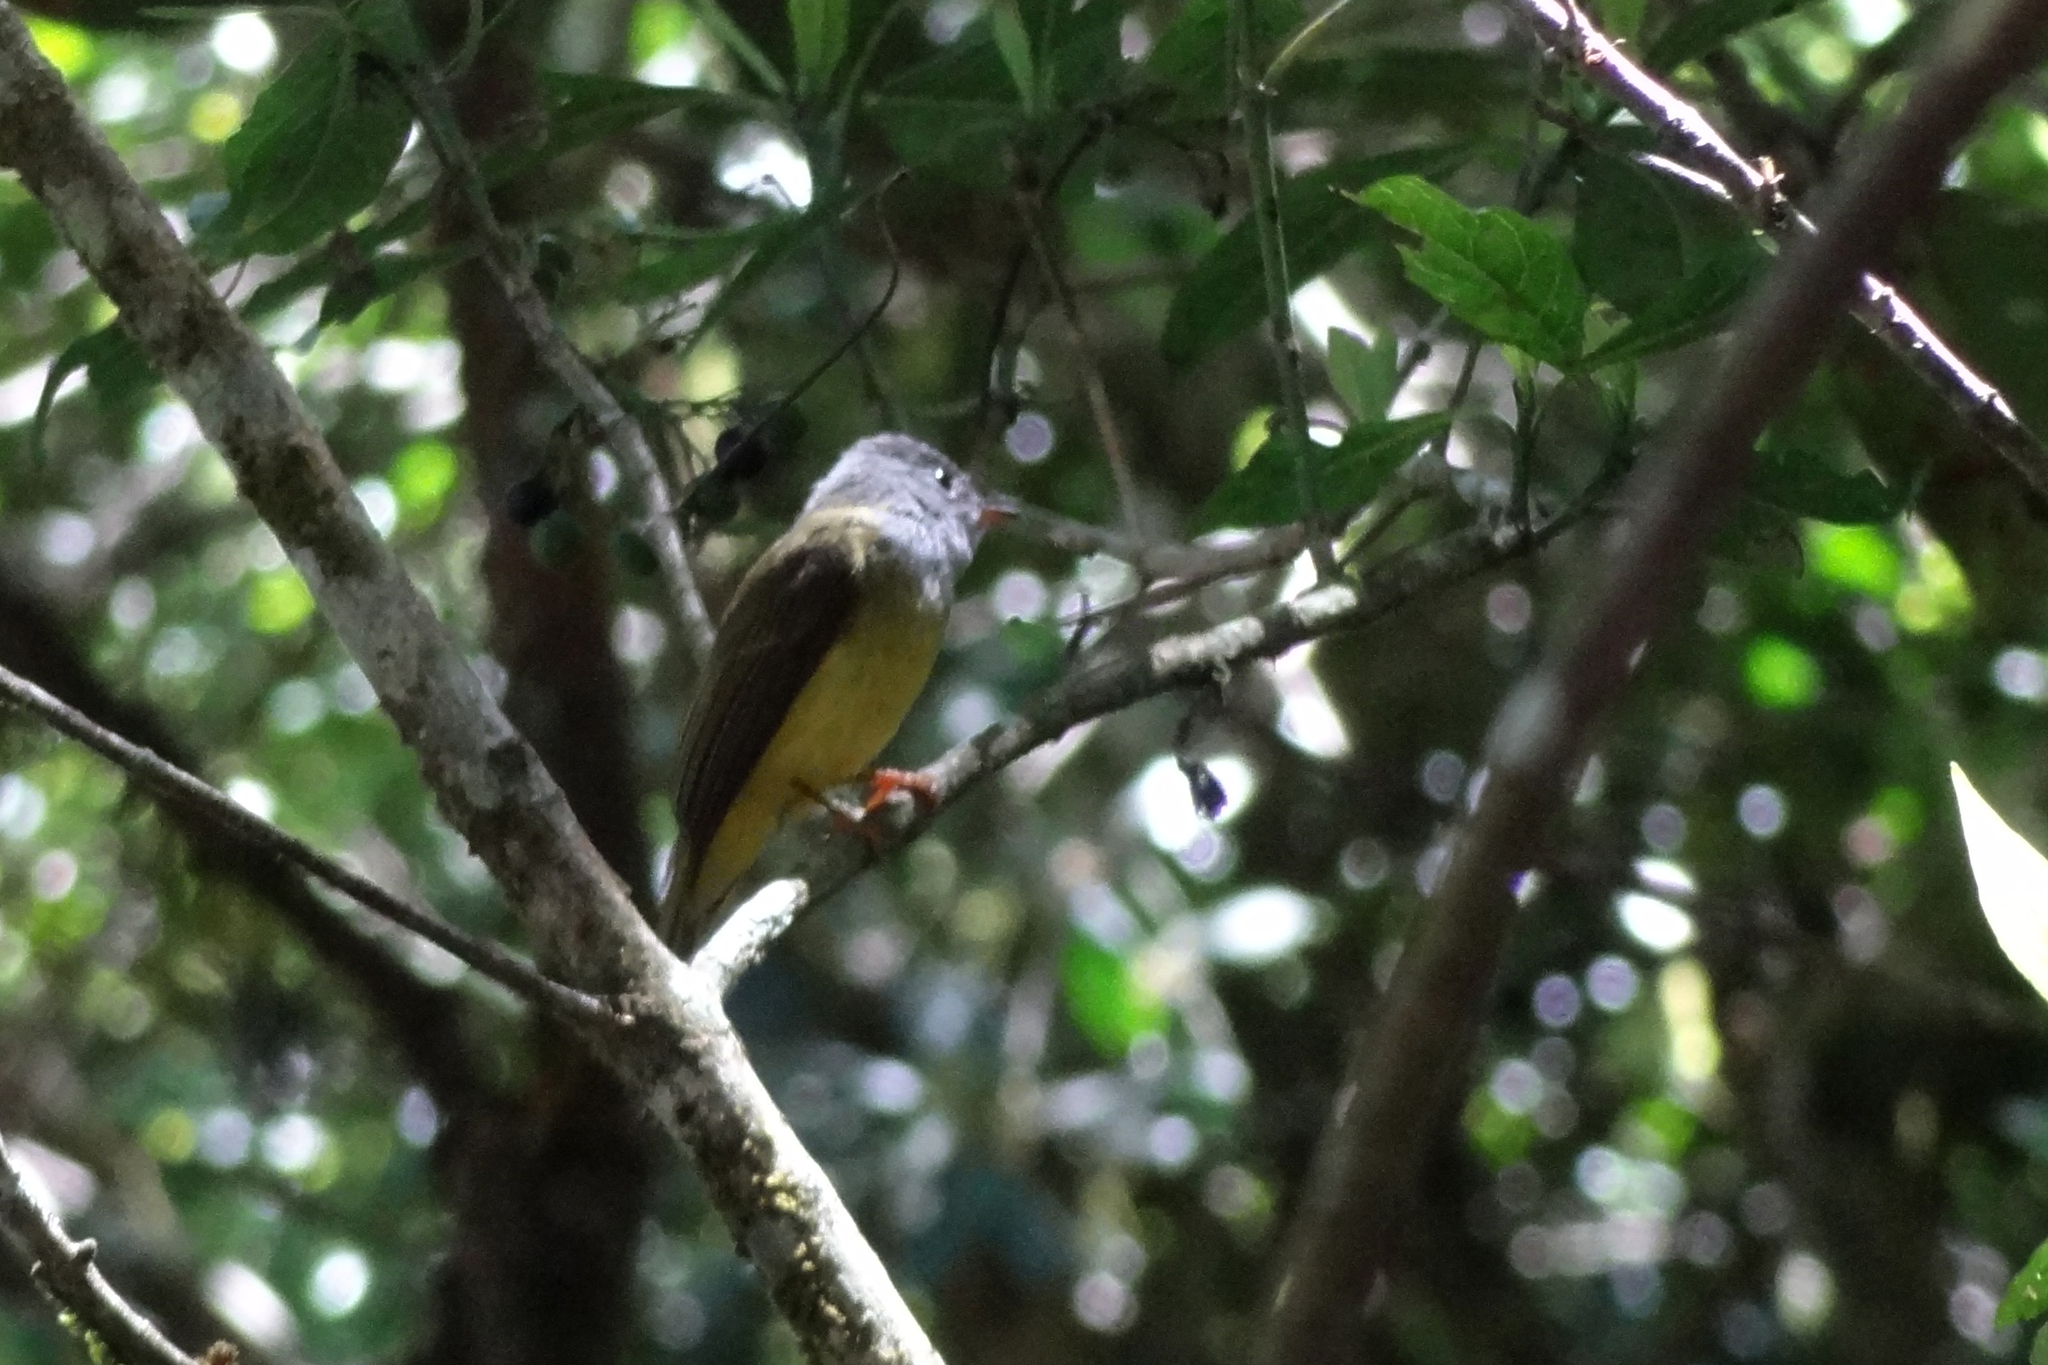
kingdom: Animalia
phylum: Chordata
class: Aves
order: Passeriformes
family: Stenostiridae
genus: Culicicapa
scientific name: Culicicapa ceylonensis
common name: Grey-headed canary-flycatcher
